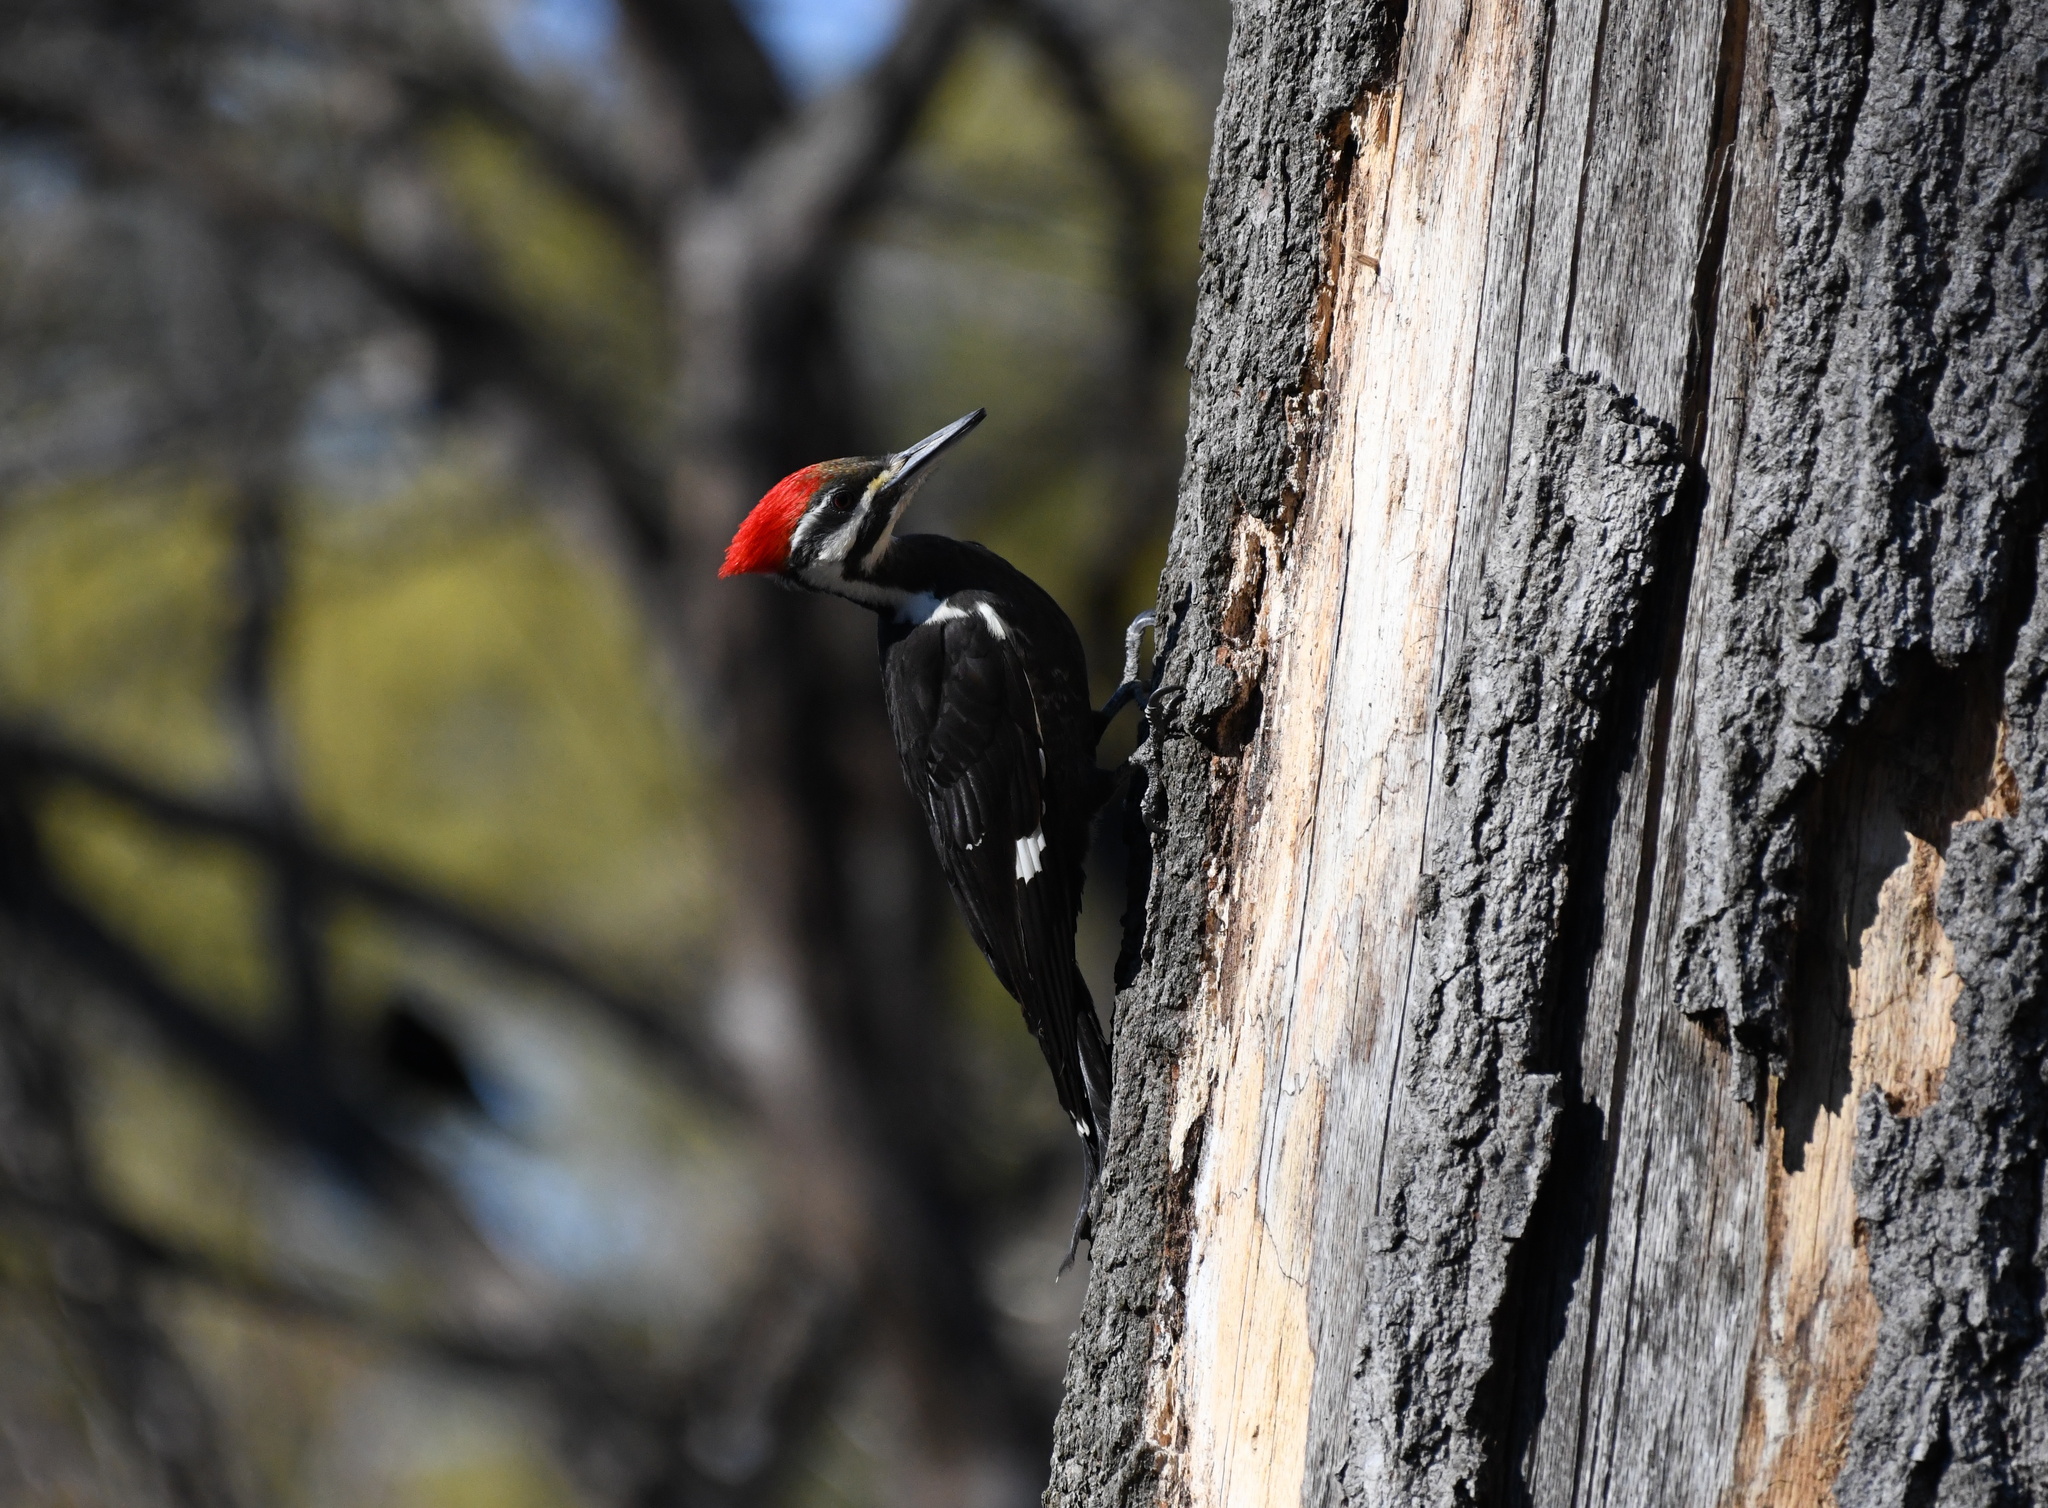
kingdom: Animalia
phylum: Chordata
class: Aves
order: Piciformes
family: Picidae
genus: Dryocopus
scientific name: Dryocopus pileatus
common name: Pileated woodpecker
